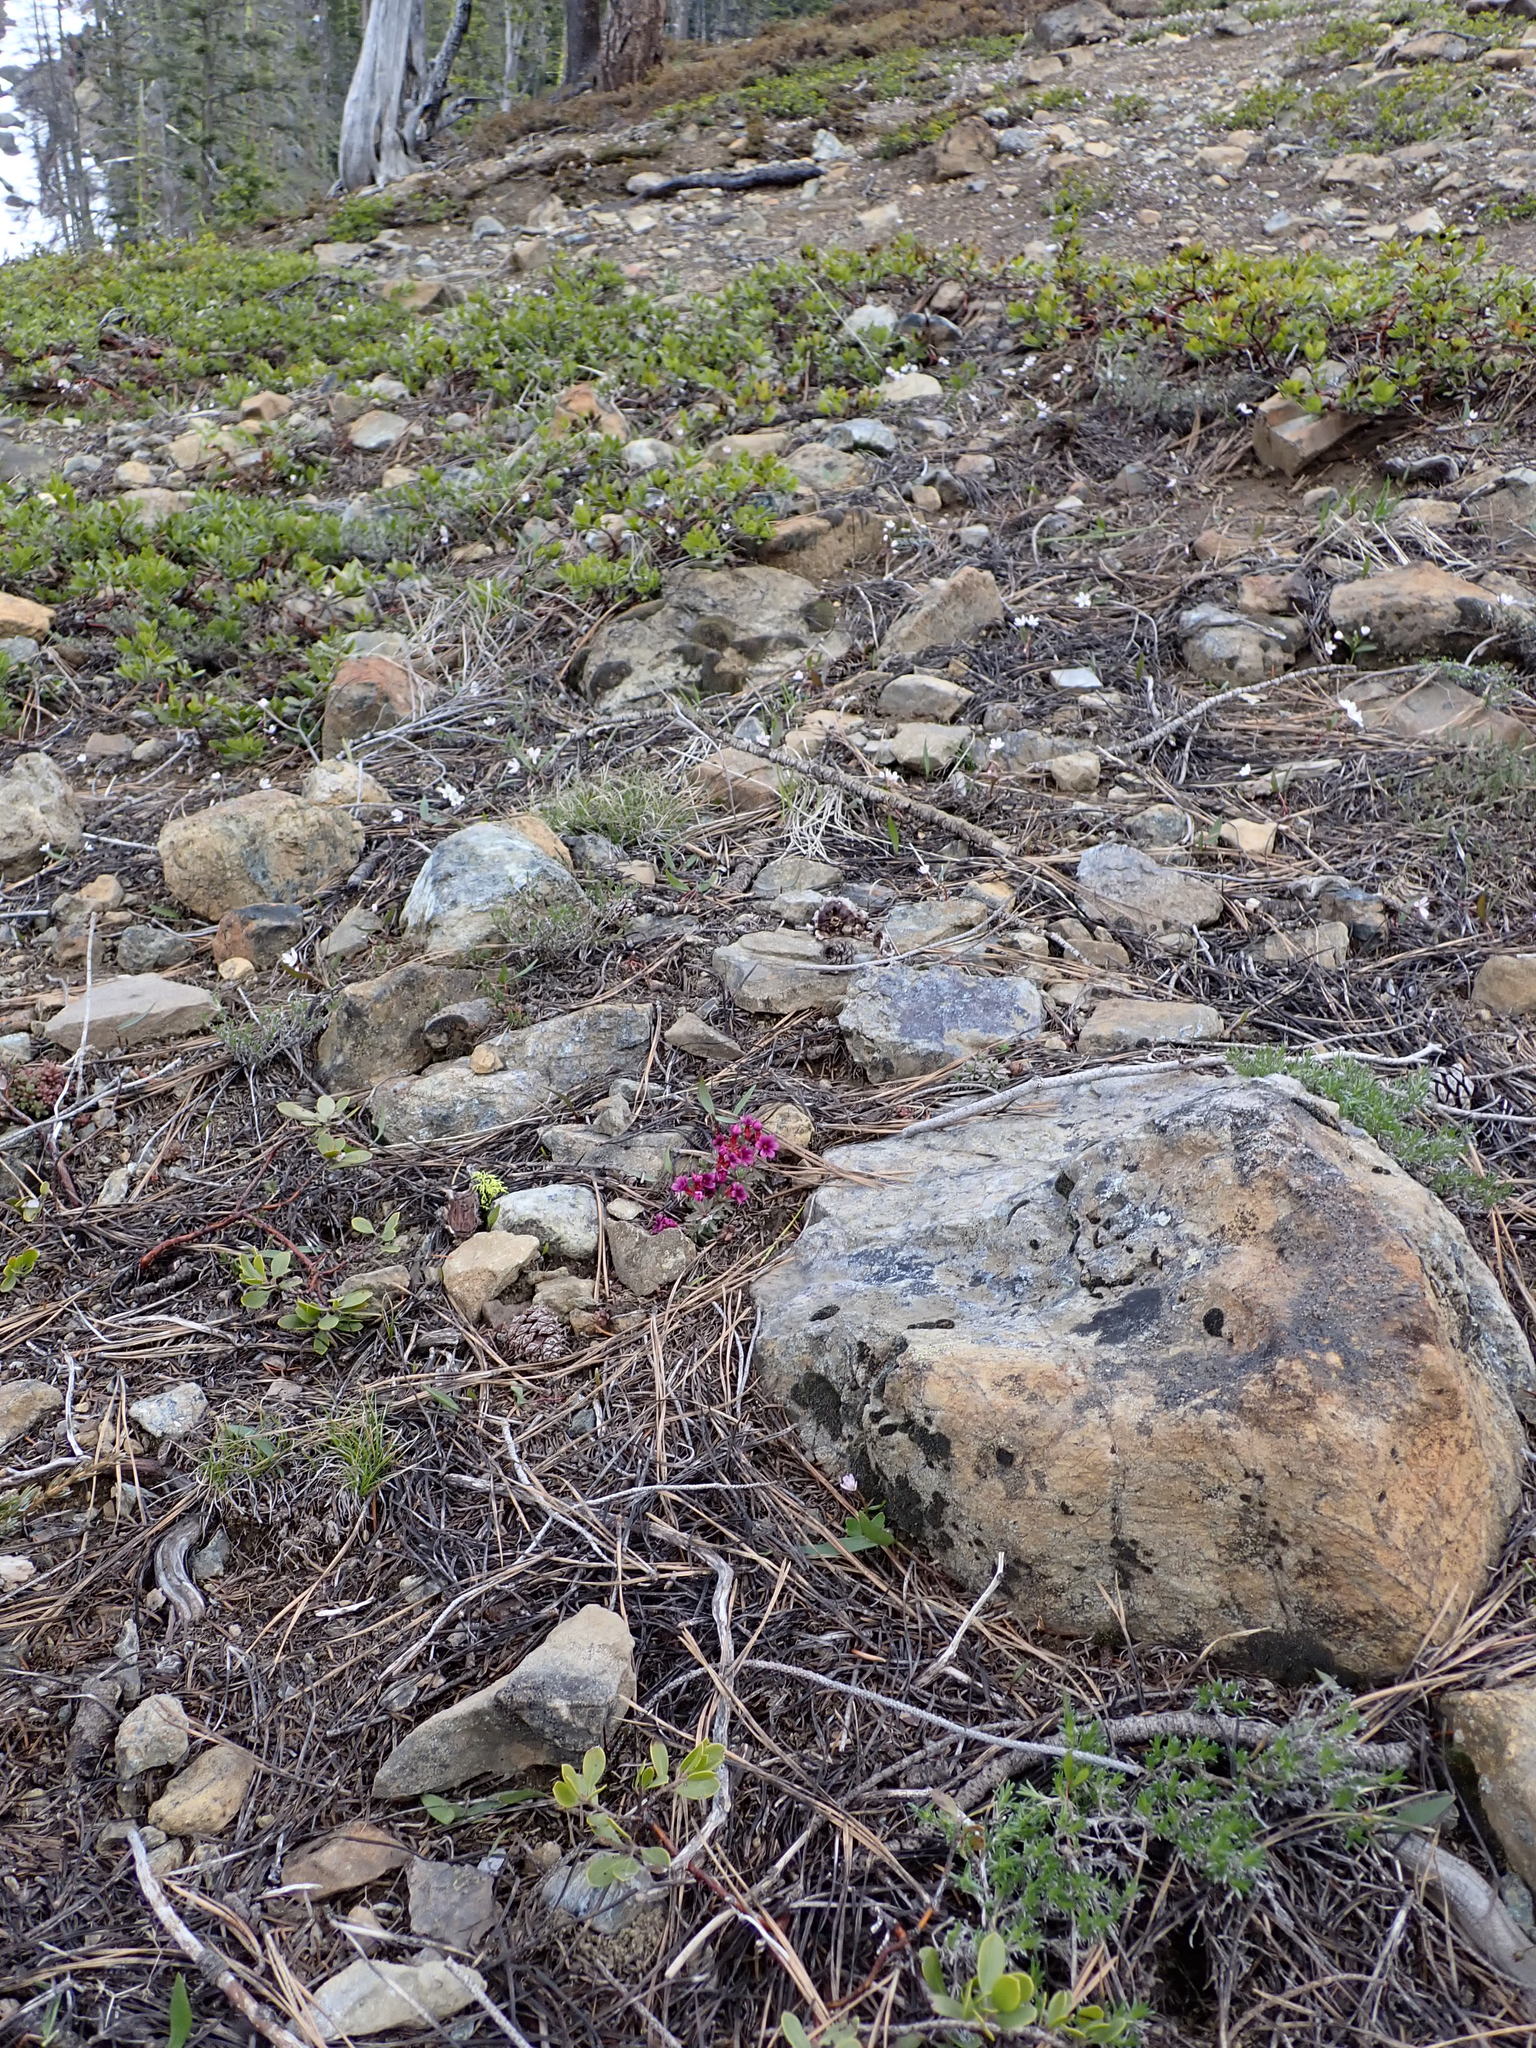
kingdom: Plantae
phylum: Tracheophyta
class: Magnoliopsida
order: Ericales
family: Primulaceae
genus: Androsace
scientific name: Androsace nivalis
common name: Snow dwarf-primrose
